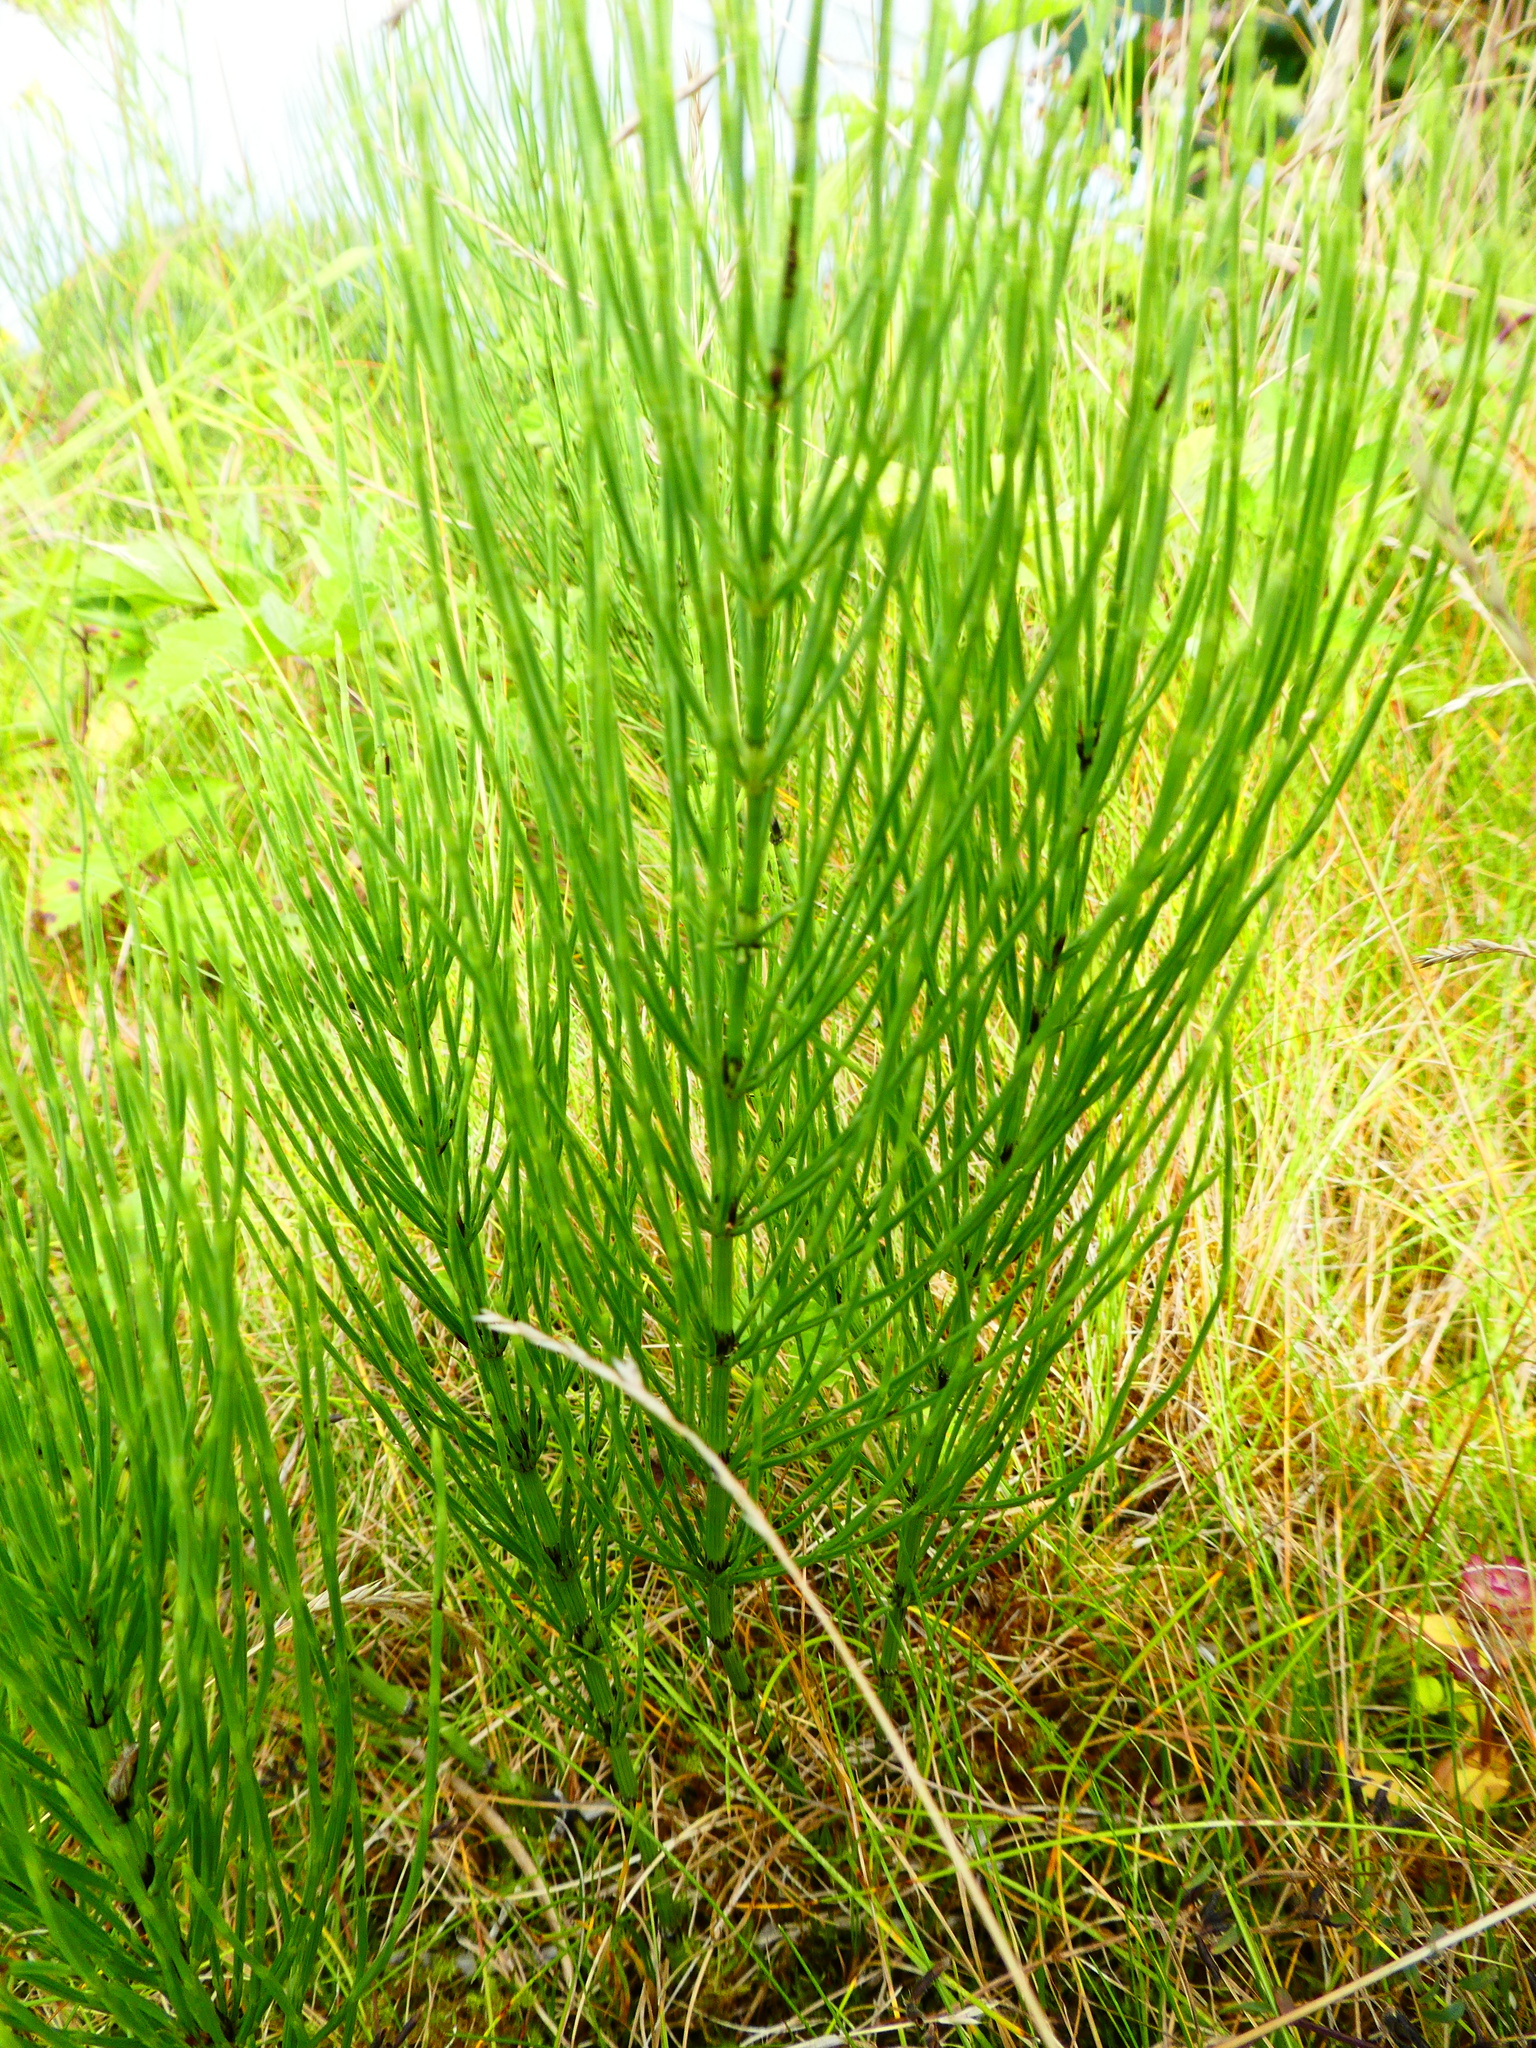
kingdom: Plantae
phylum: Tracheophyta
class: Polypodiopsida
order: Equisetales
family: Equisetaceae
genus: Equisetum
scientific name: Equisetum arvense
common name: Field horsetail
